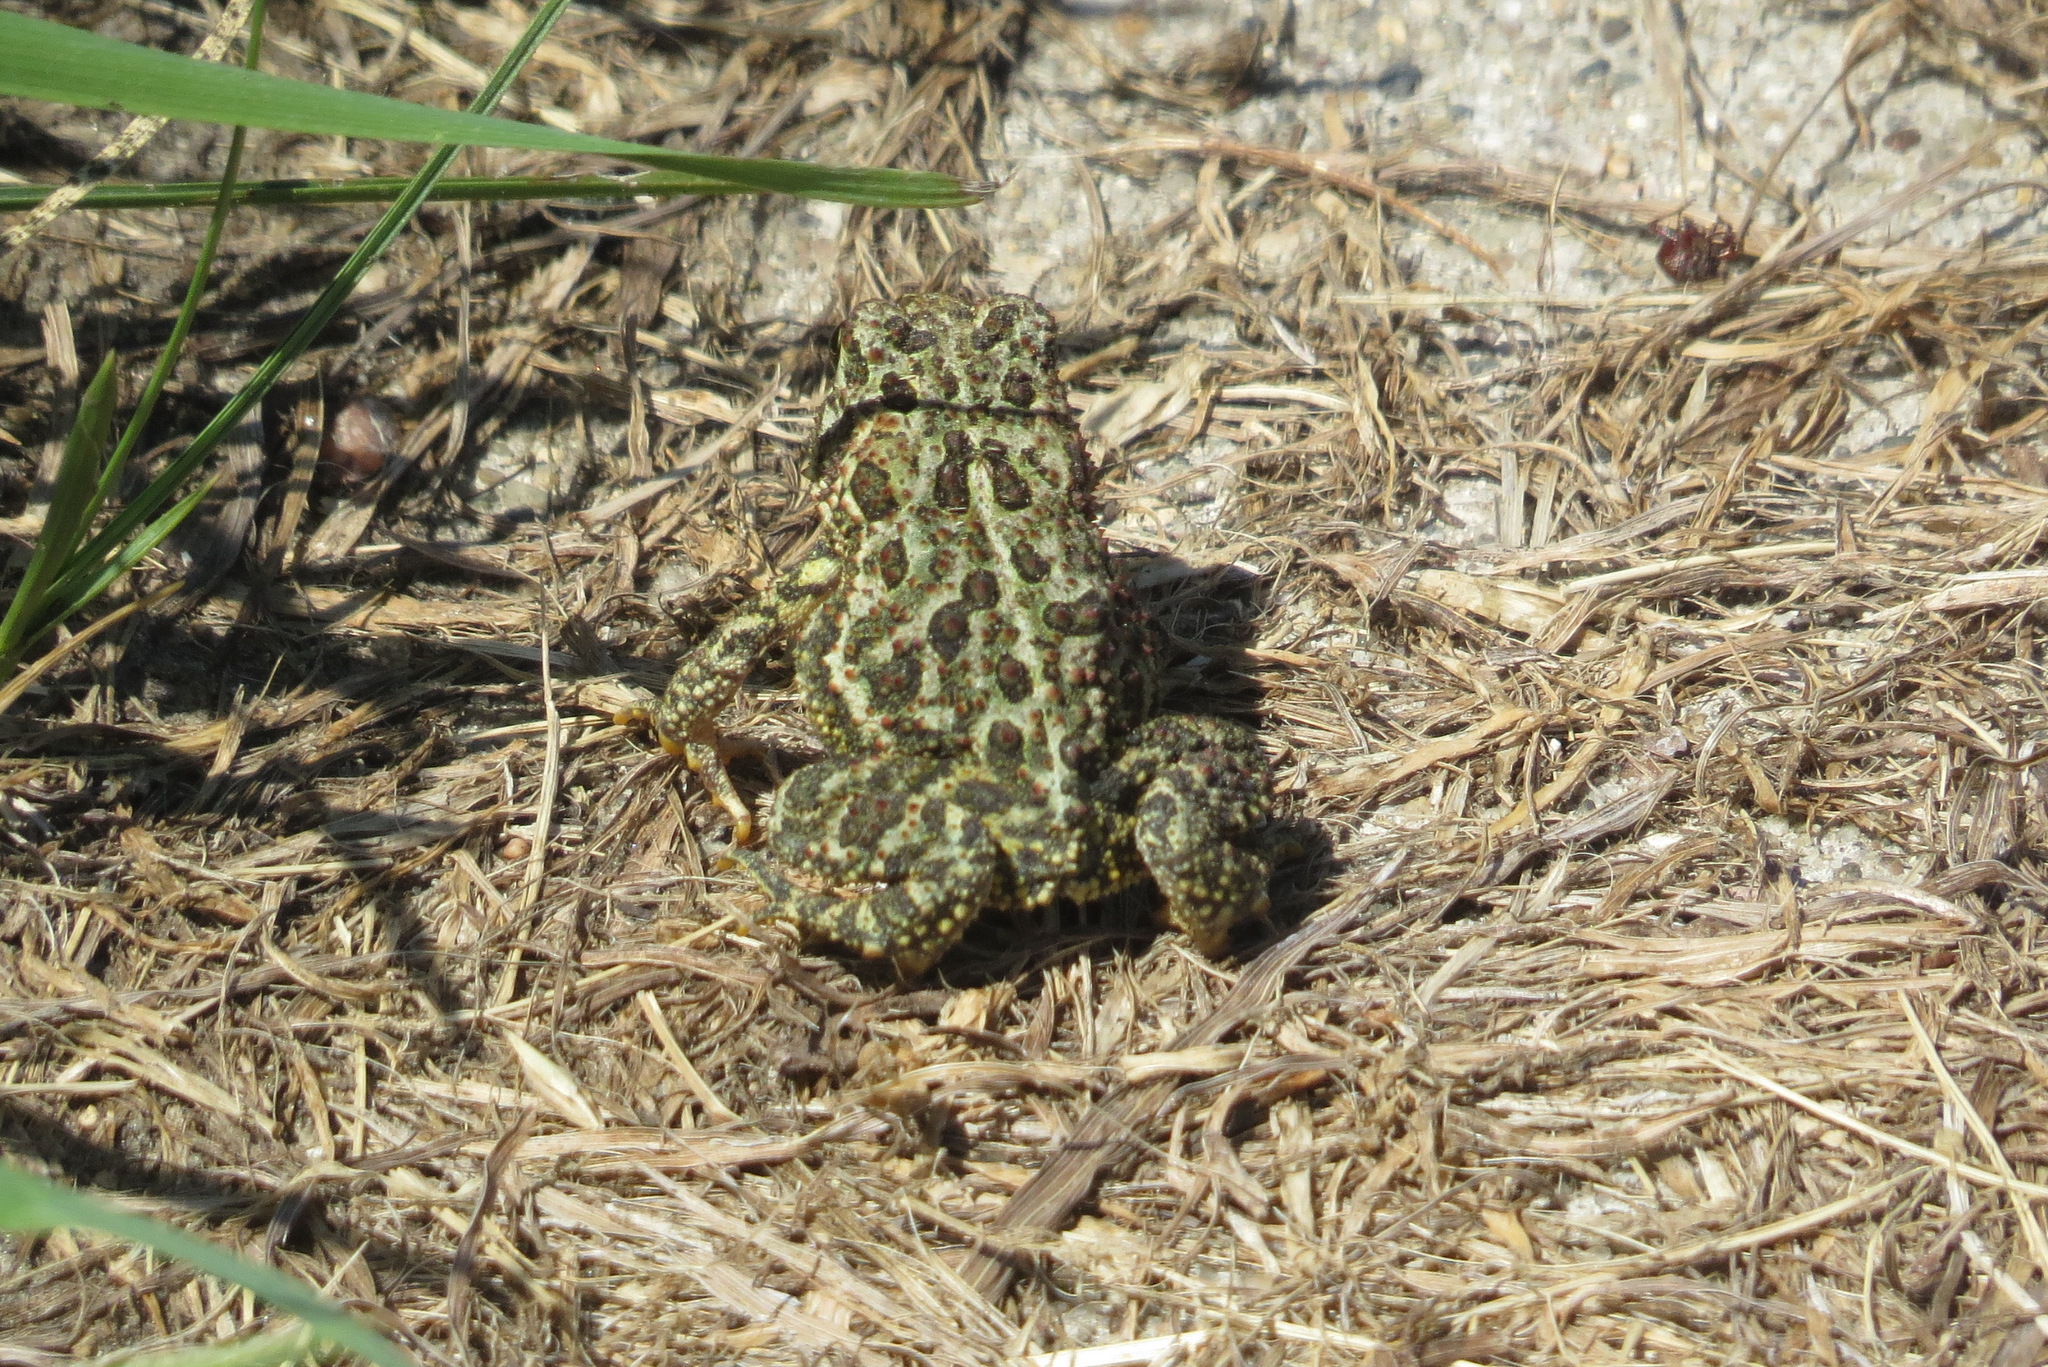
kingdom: Animalia
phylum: Chordata
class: Amphibia
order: Anura
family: Bufonidae
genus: Anaxyrus
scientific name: Anaxyrus hemiophrys
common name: Canadian toad
